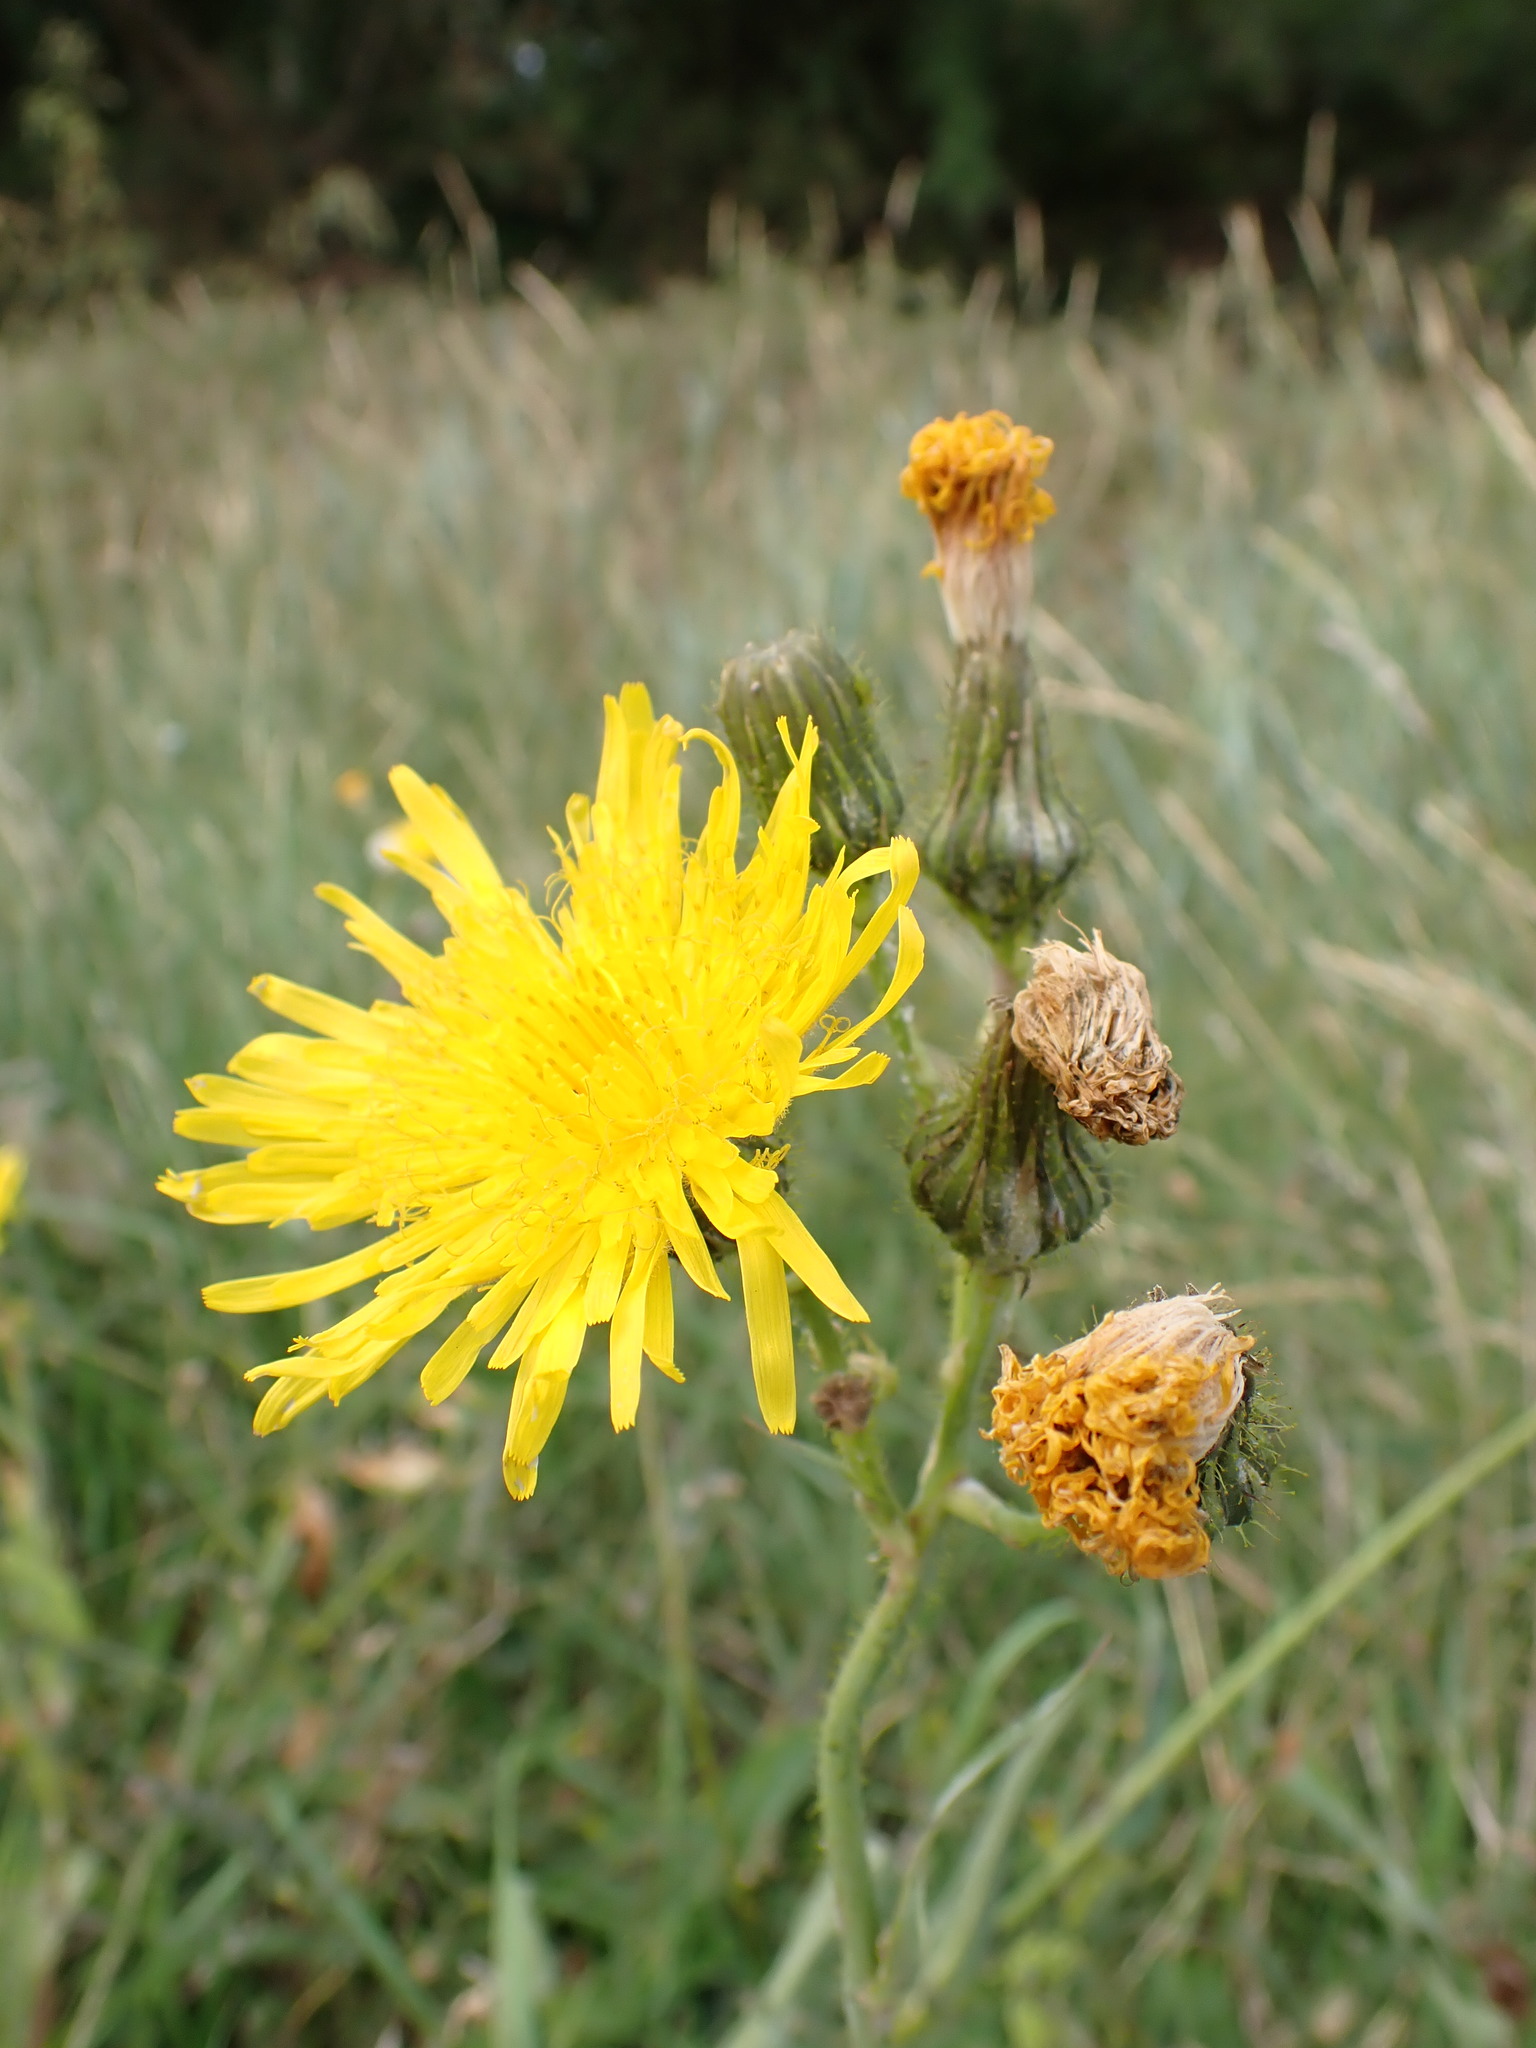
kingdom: Plantae
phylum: Tracheophyta
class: Magnoliopsida
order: Asterales
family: Asteraceae
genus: Sonchus
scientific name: Sonchus arvensis
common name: Perennial sow-thistle
